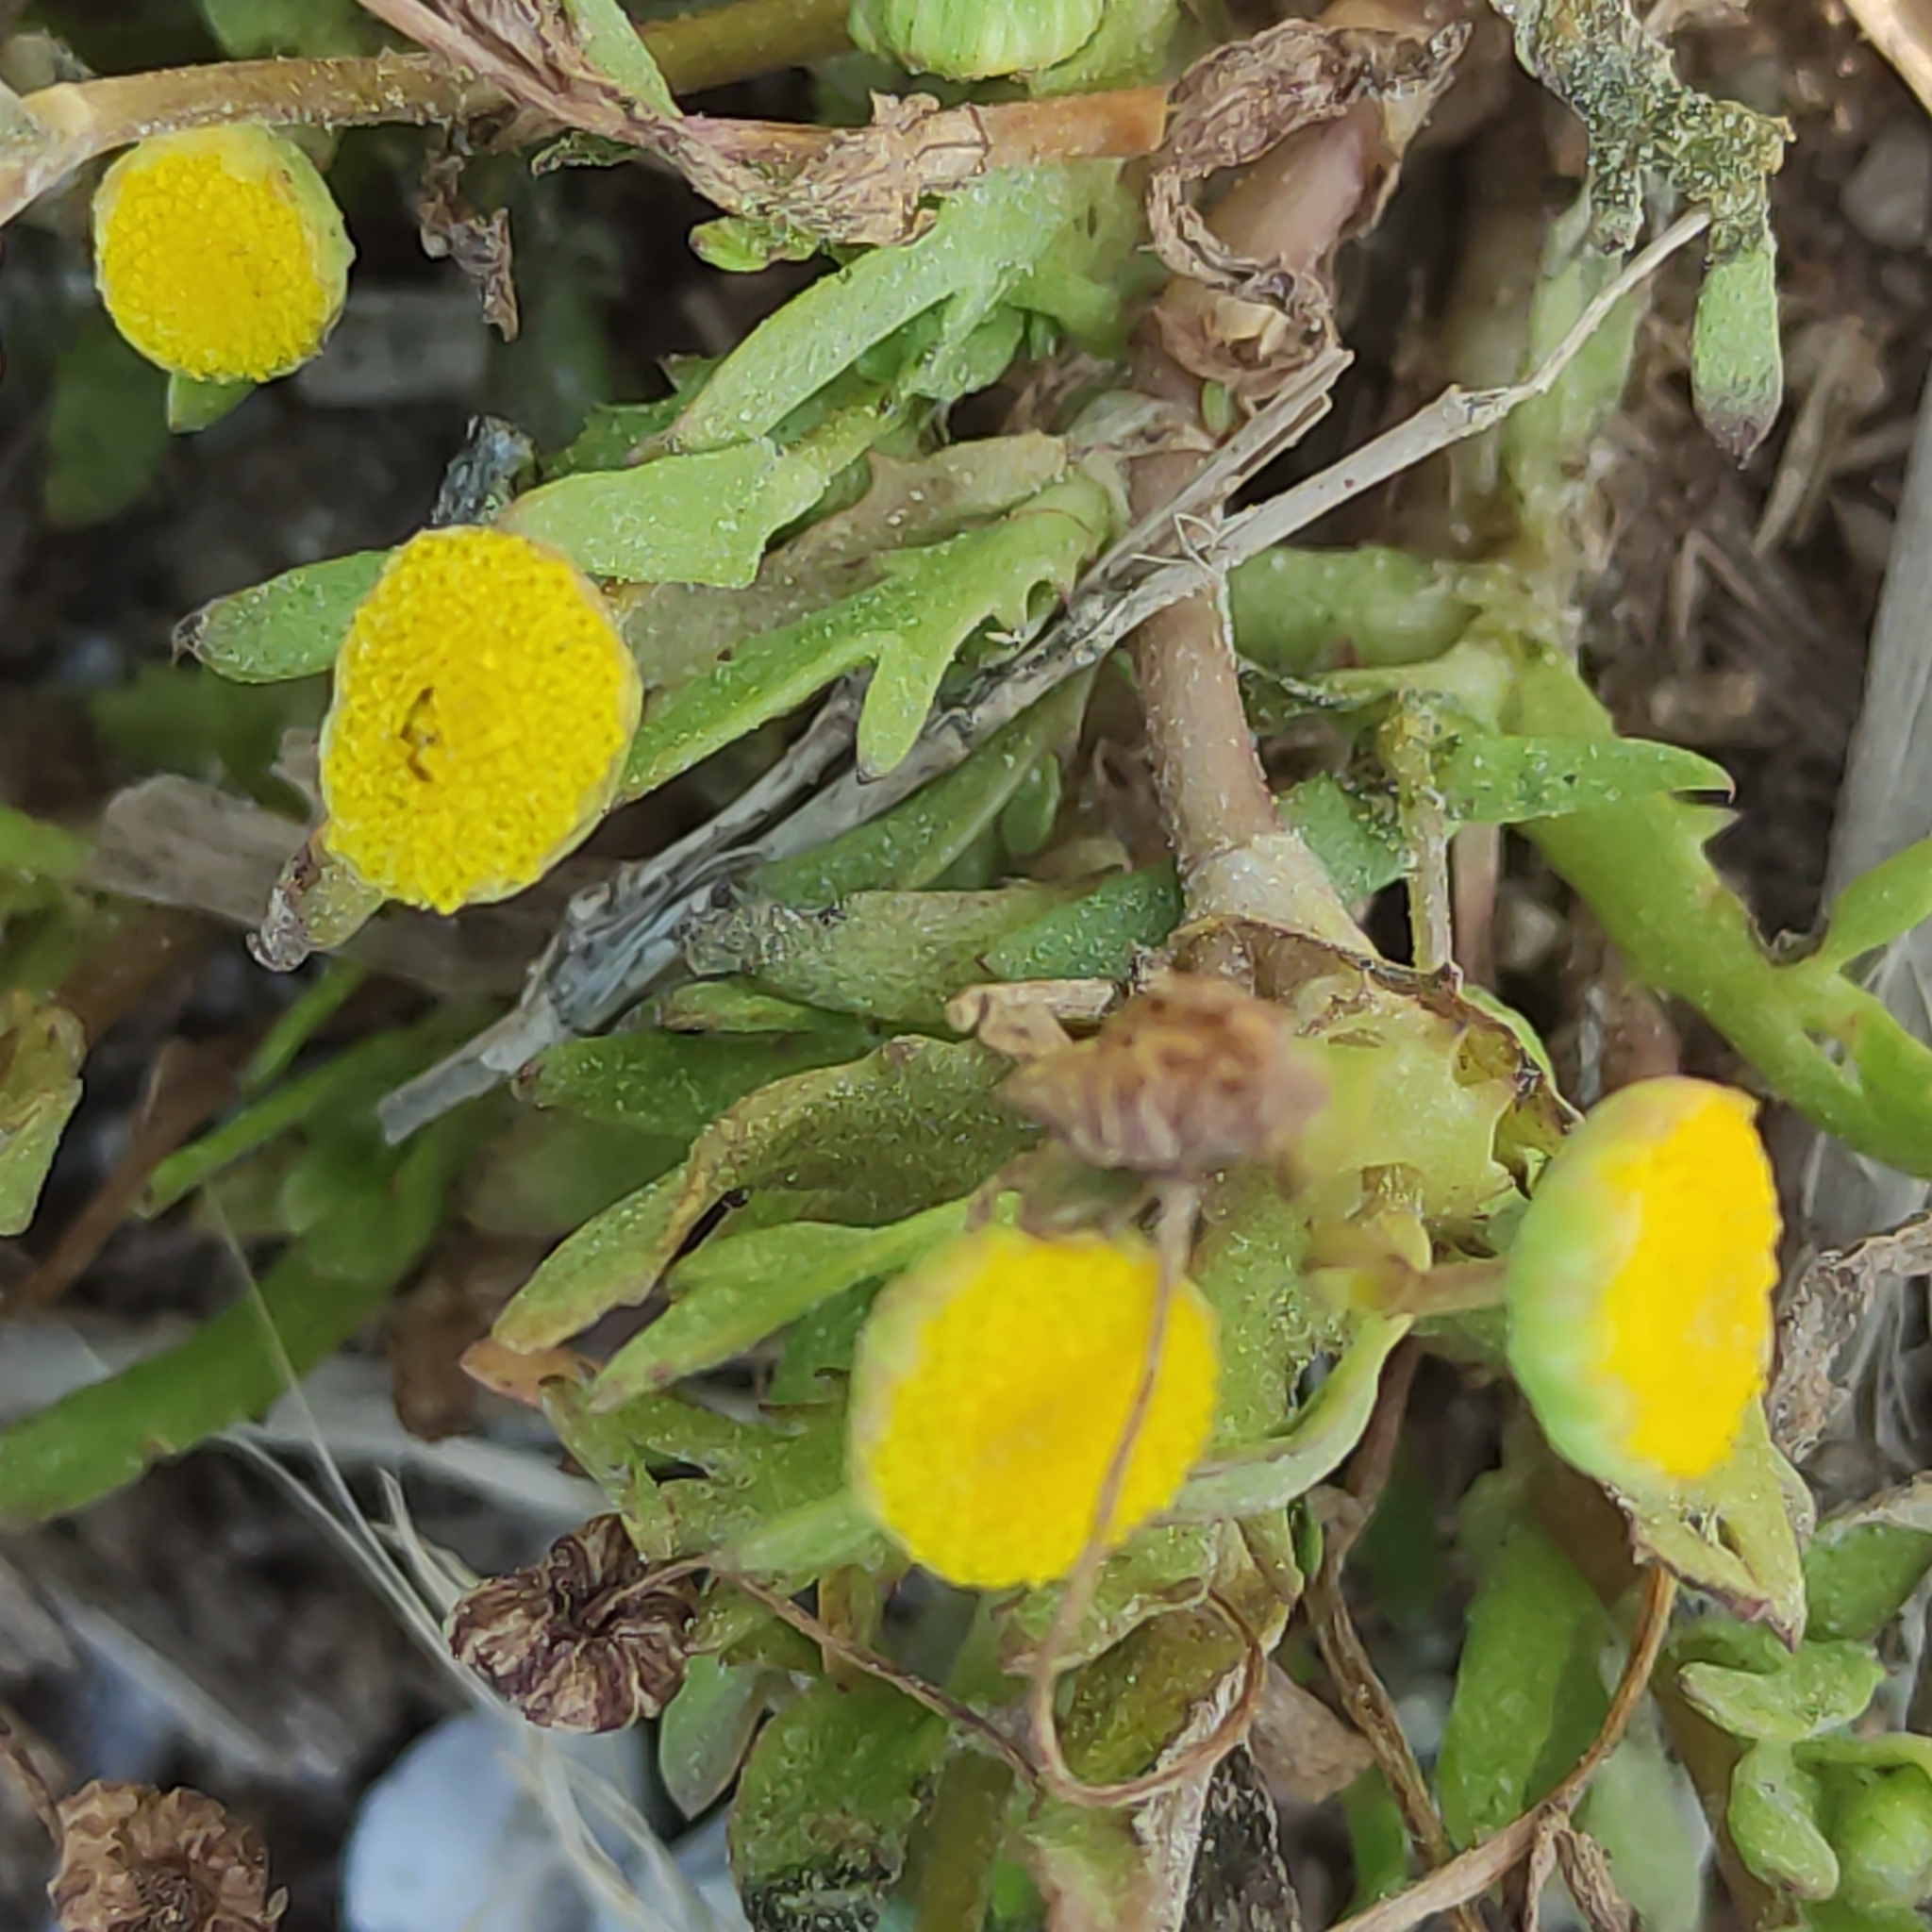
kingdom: Plantae
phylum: Tracheophyta
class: Magnoliopsida
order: Asterales
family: Asteraceae
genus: Cotula
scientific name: Cotula coronopifolia
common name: Buttonweed
